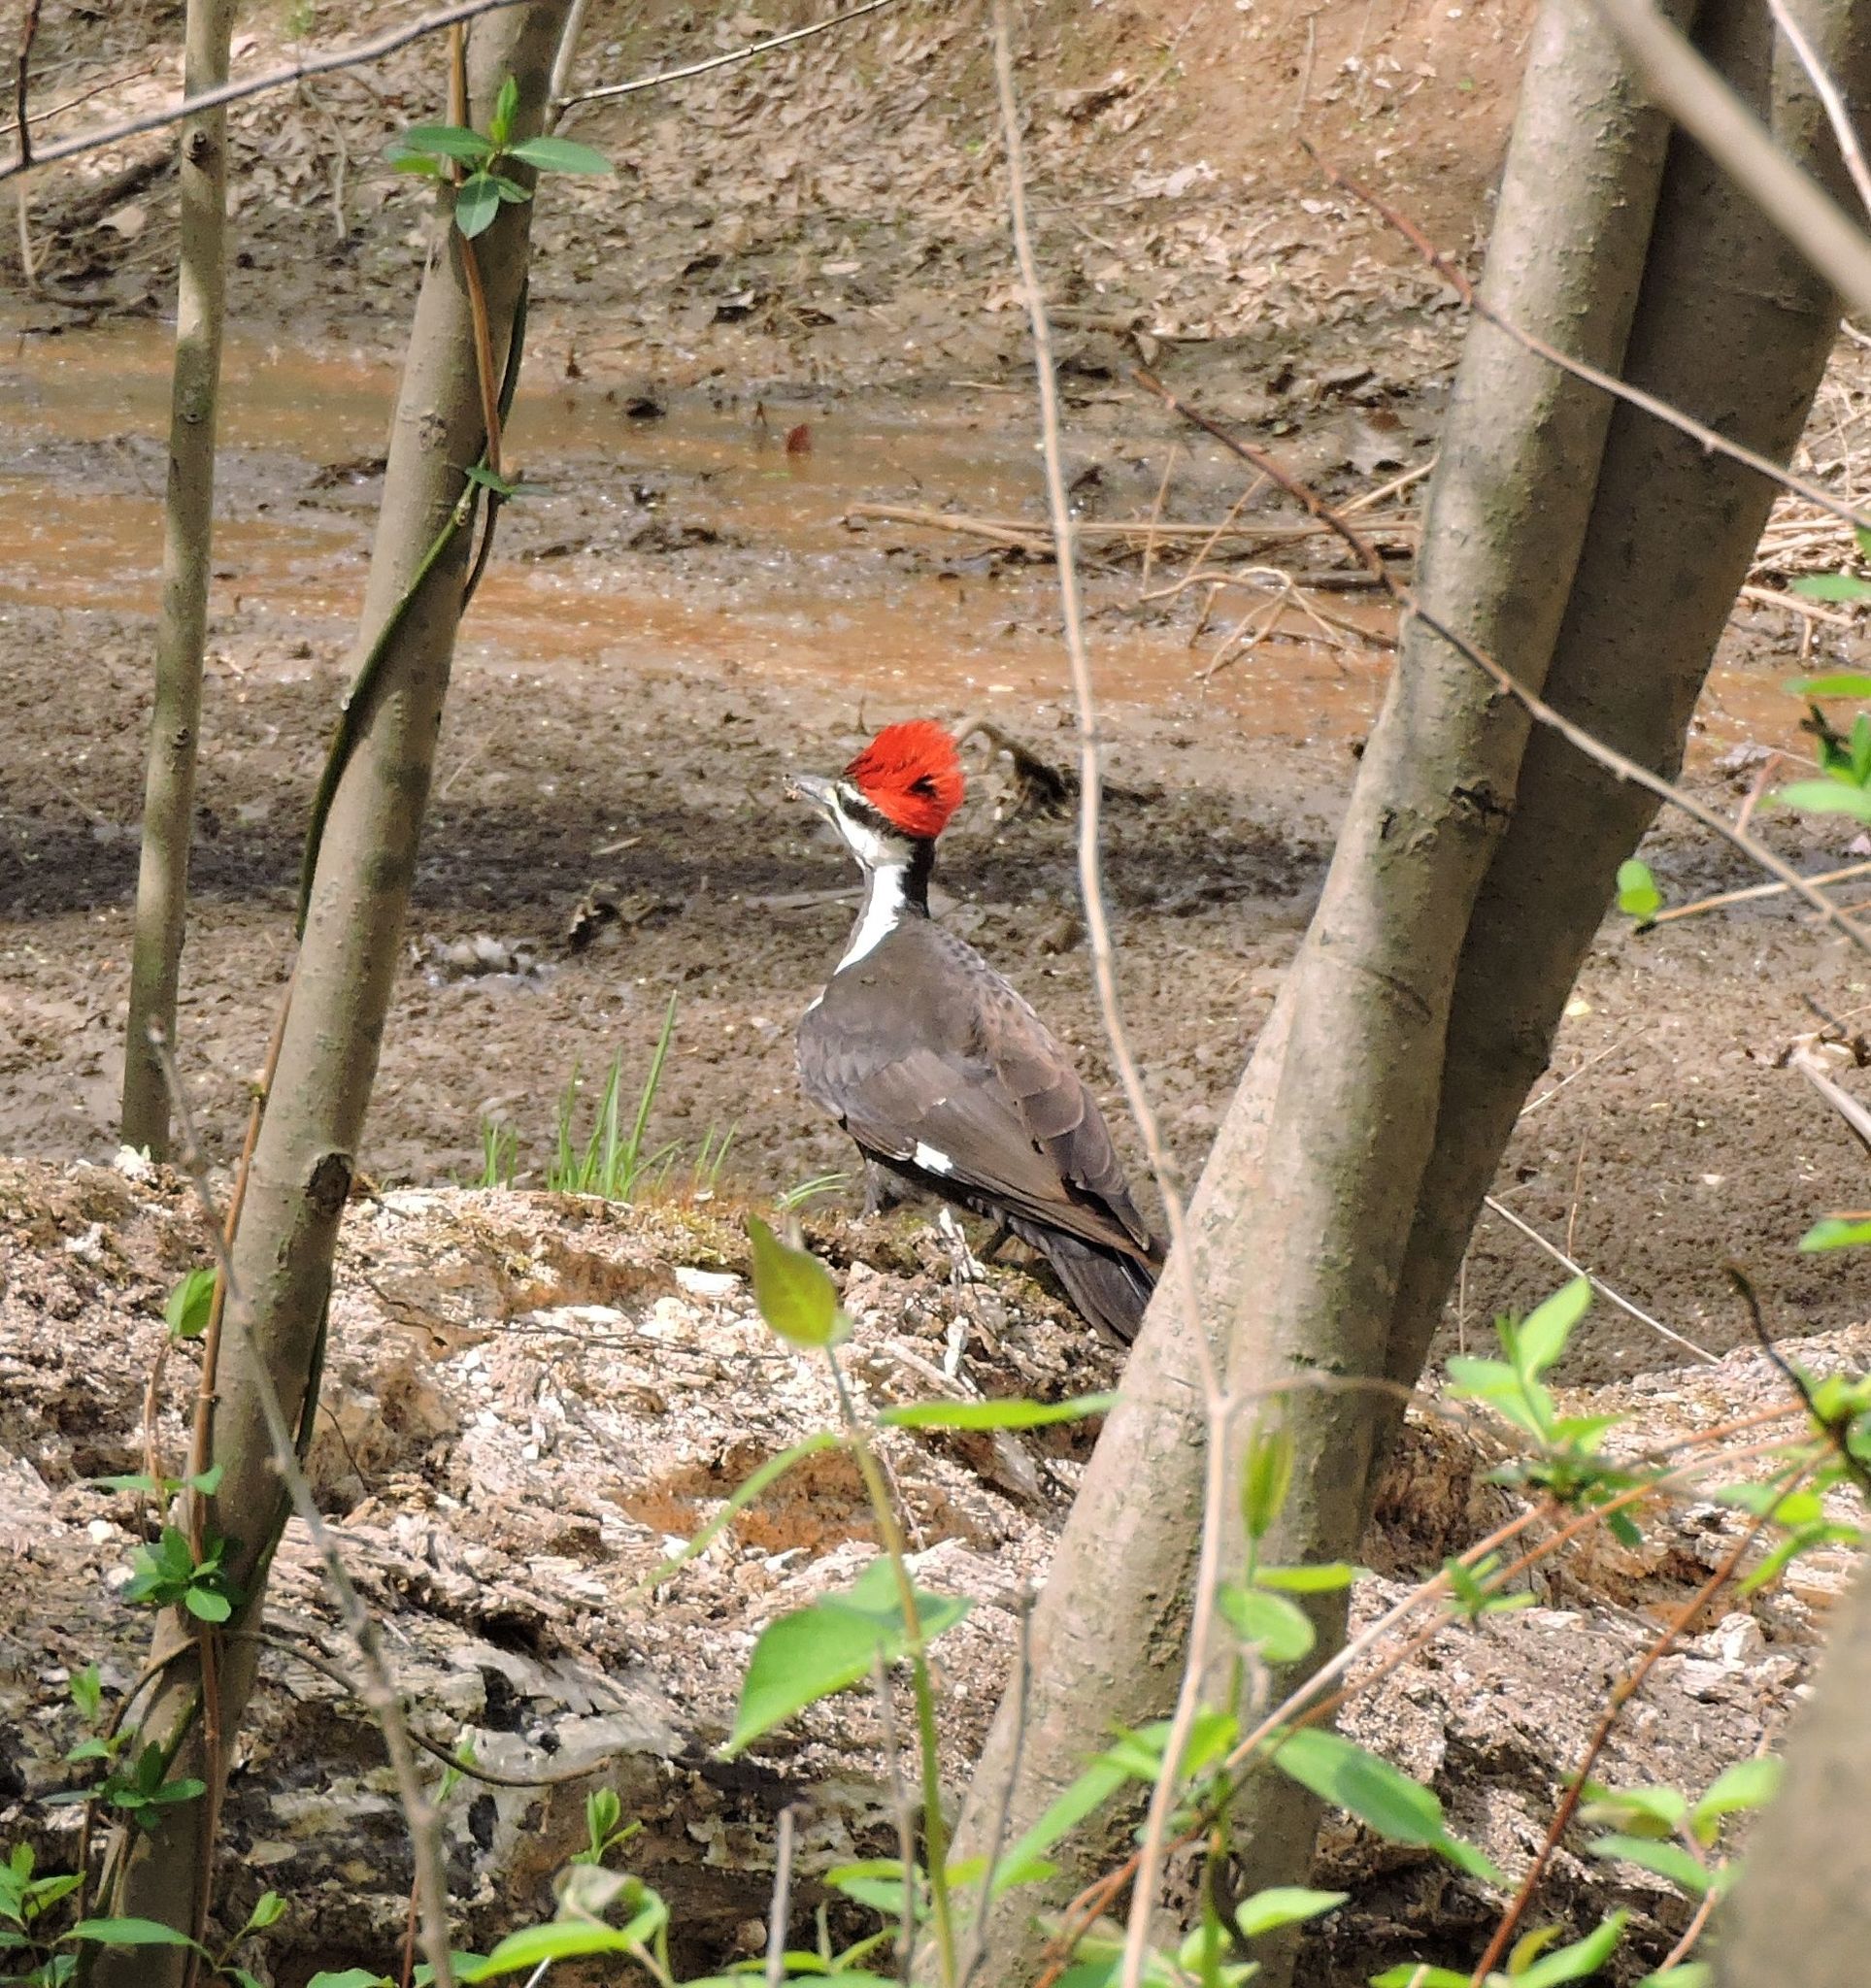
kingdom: Animalia
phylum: Chordata
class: Aves
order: Piciformes
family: Picidae
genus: Dryocopus
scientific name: Dryocopus pileatus
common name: Pileated woodpecker
